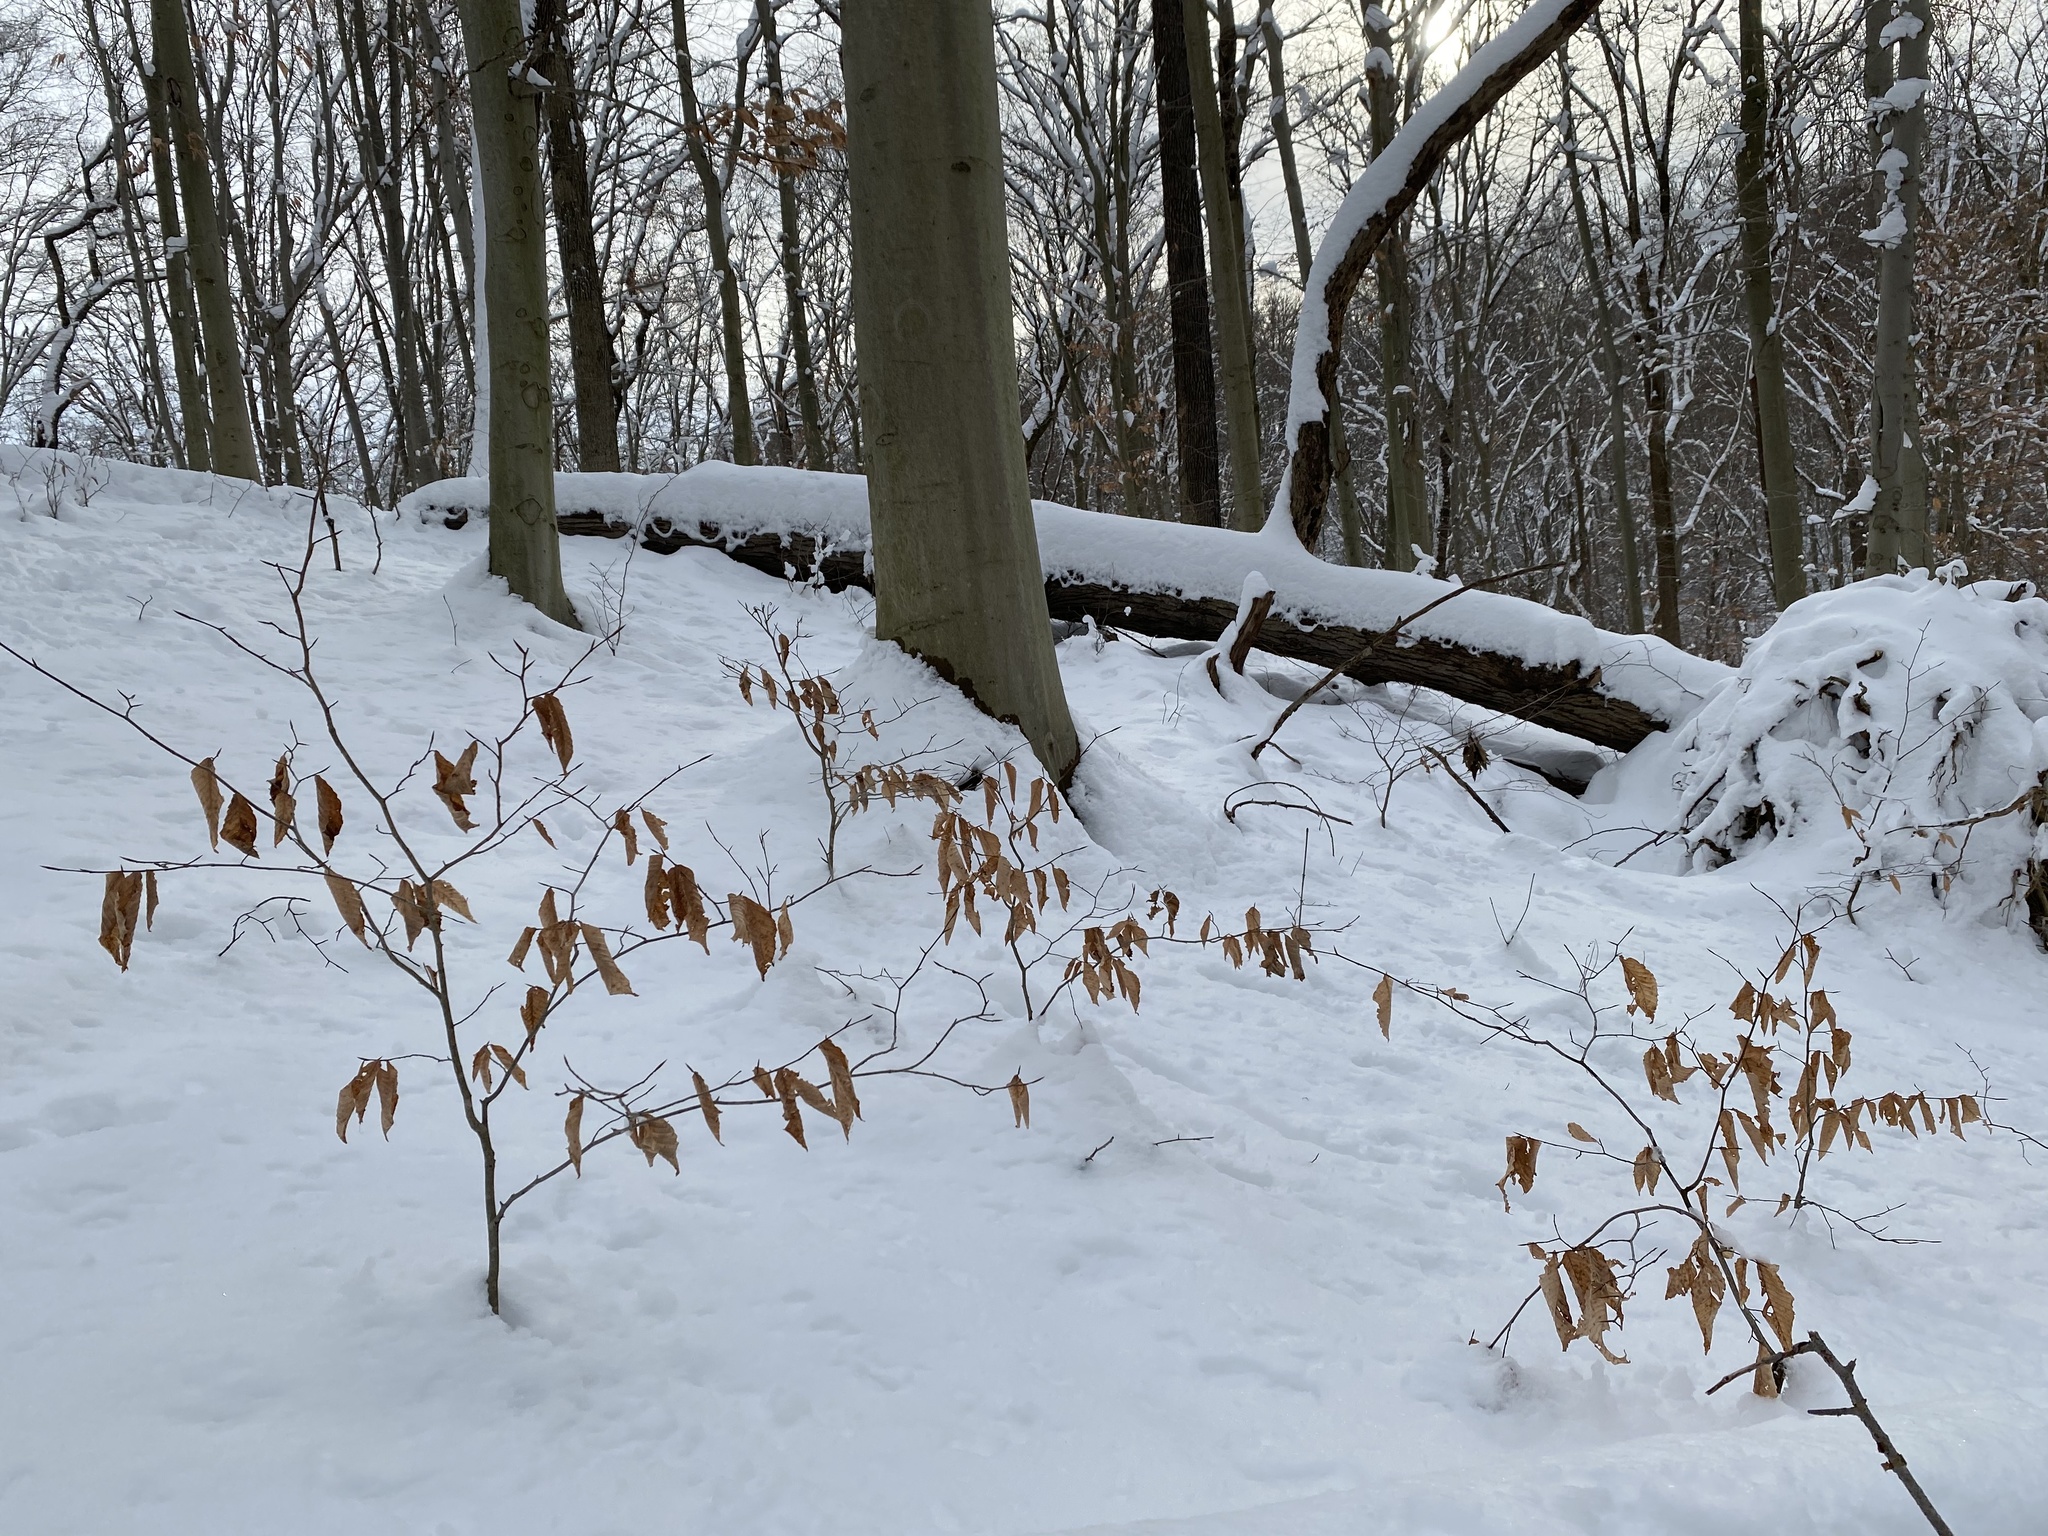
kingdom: Plantae
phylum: Tracheophyta
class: Magnoliopsida
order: Fagales
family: Fagaceae
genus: Fagus
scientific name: Fagus grandifolia
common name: American beech
